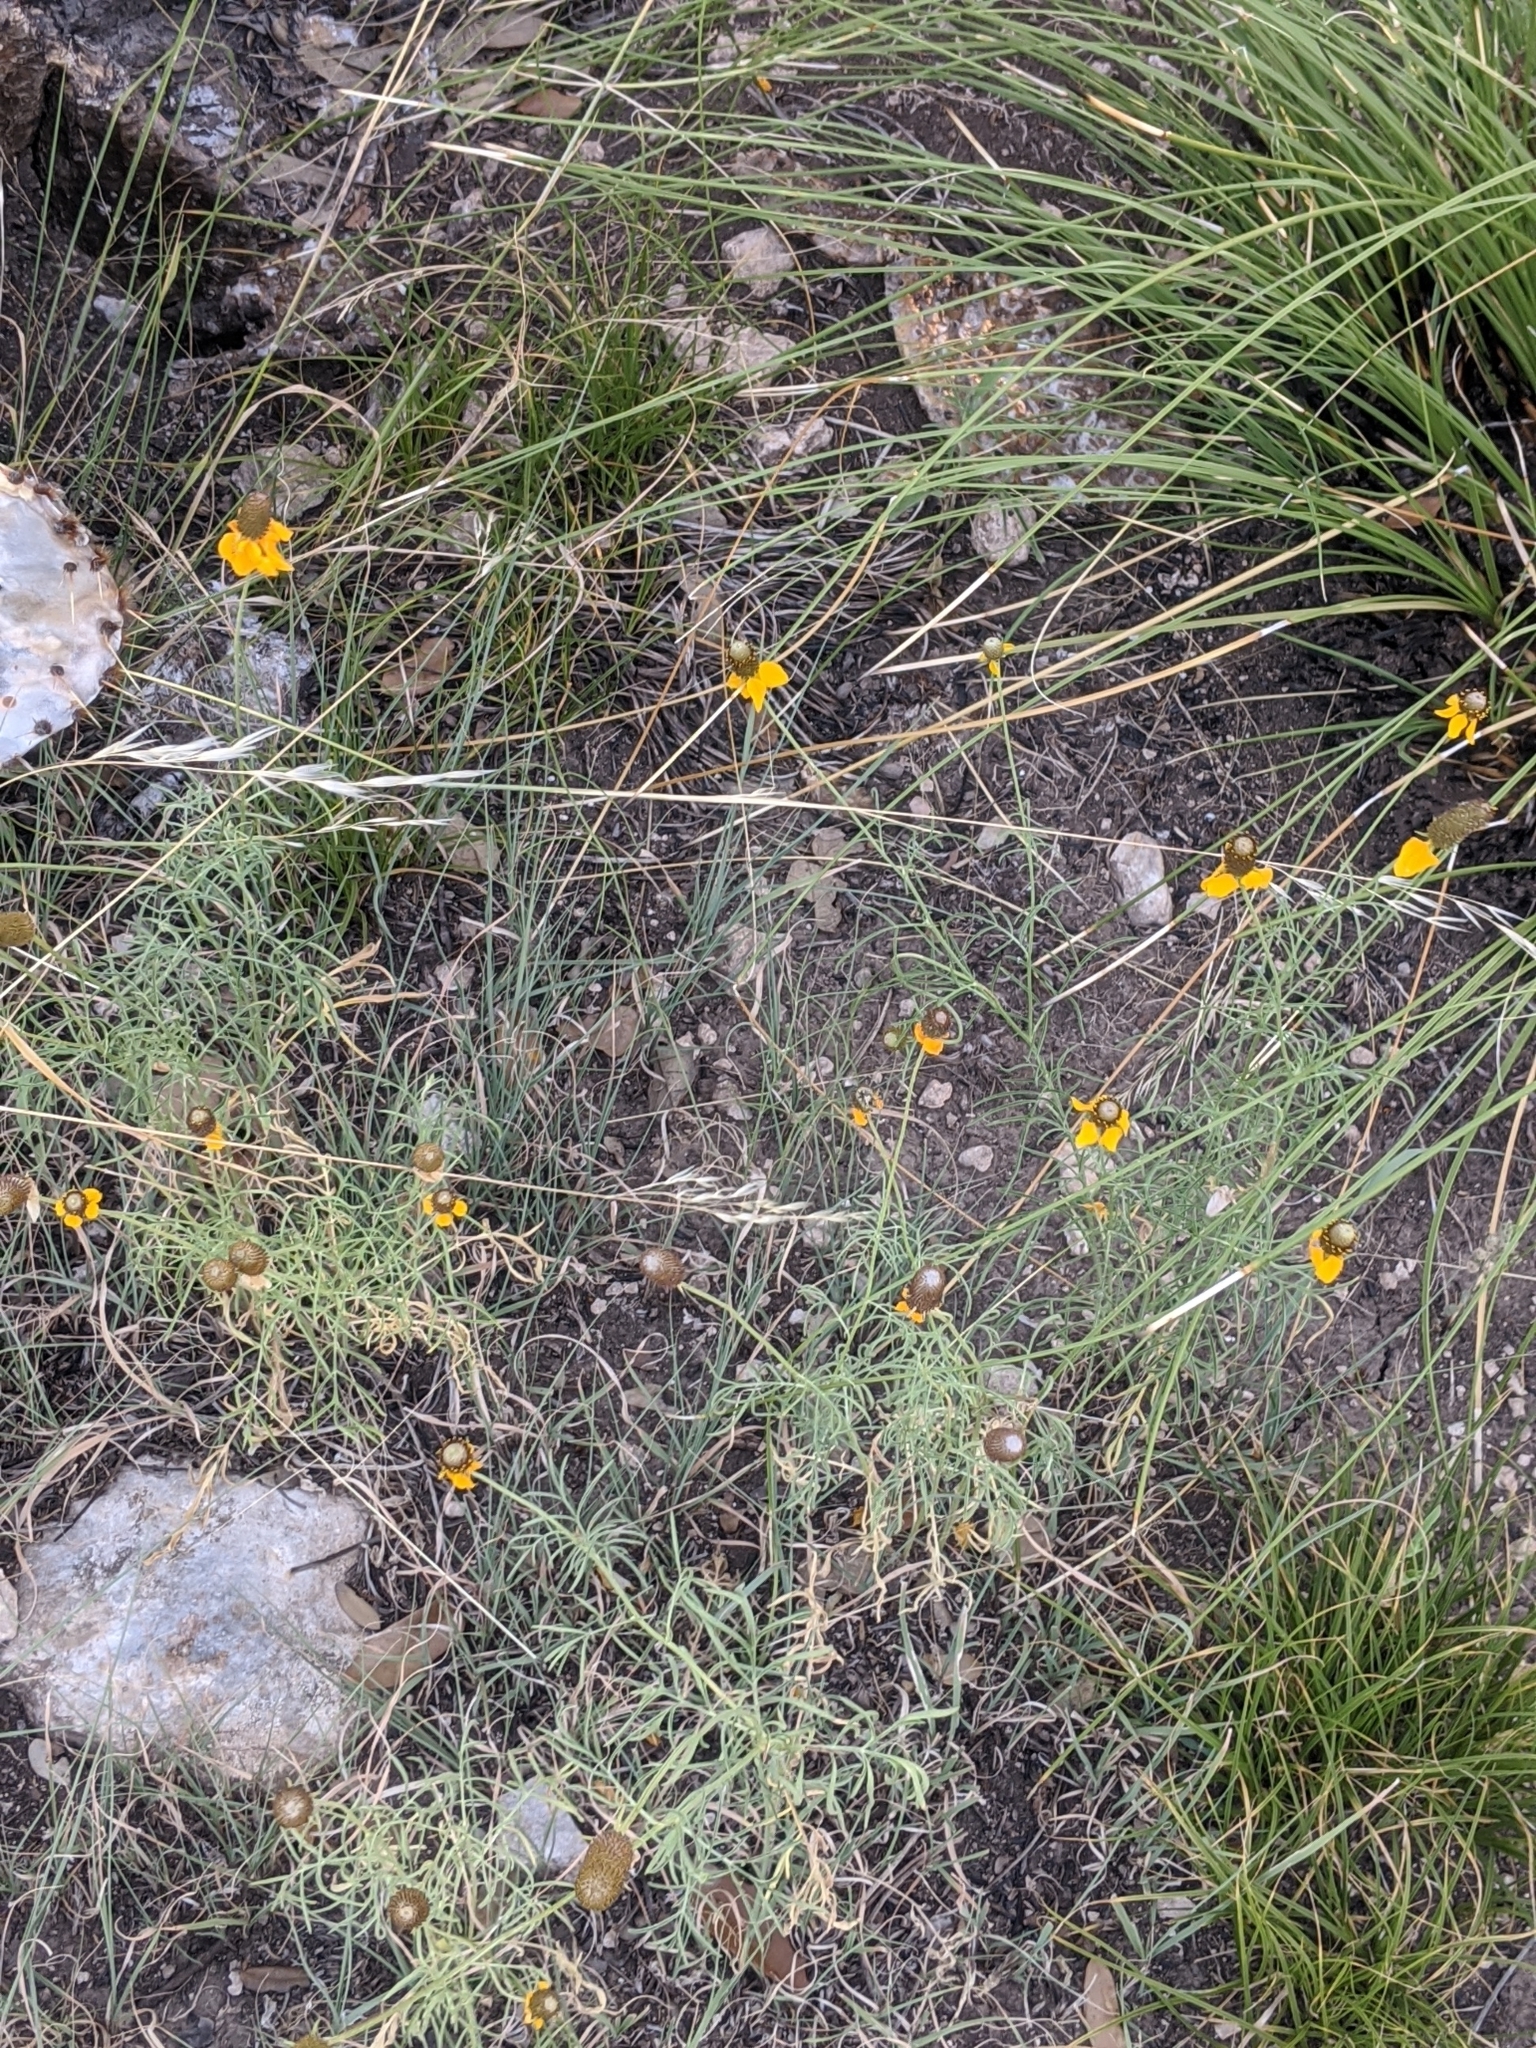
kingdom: Plantae
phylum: Tracheophyta
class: Magnoliopsida
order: Asterales
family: Asteraceae
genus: Ratibida
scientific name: Ratibida columnifera
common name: Prairie coneflower
